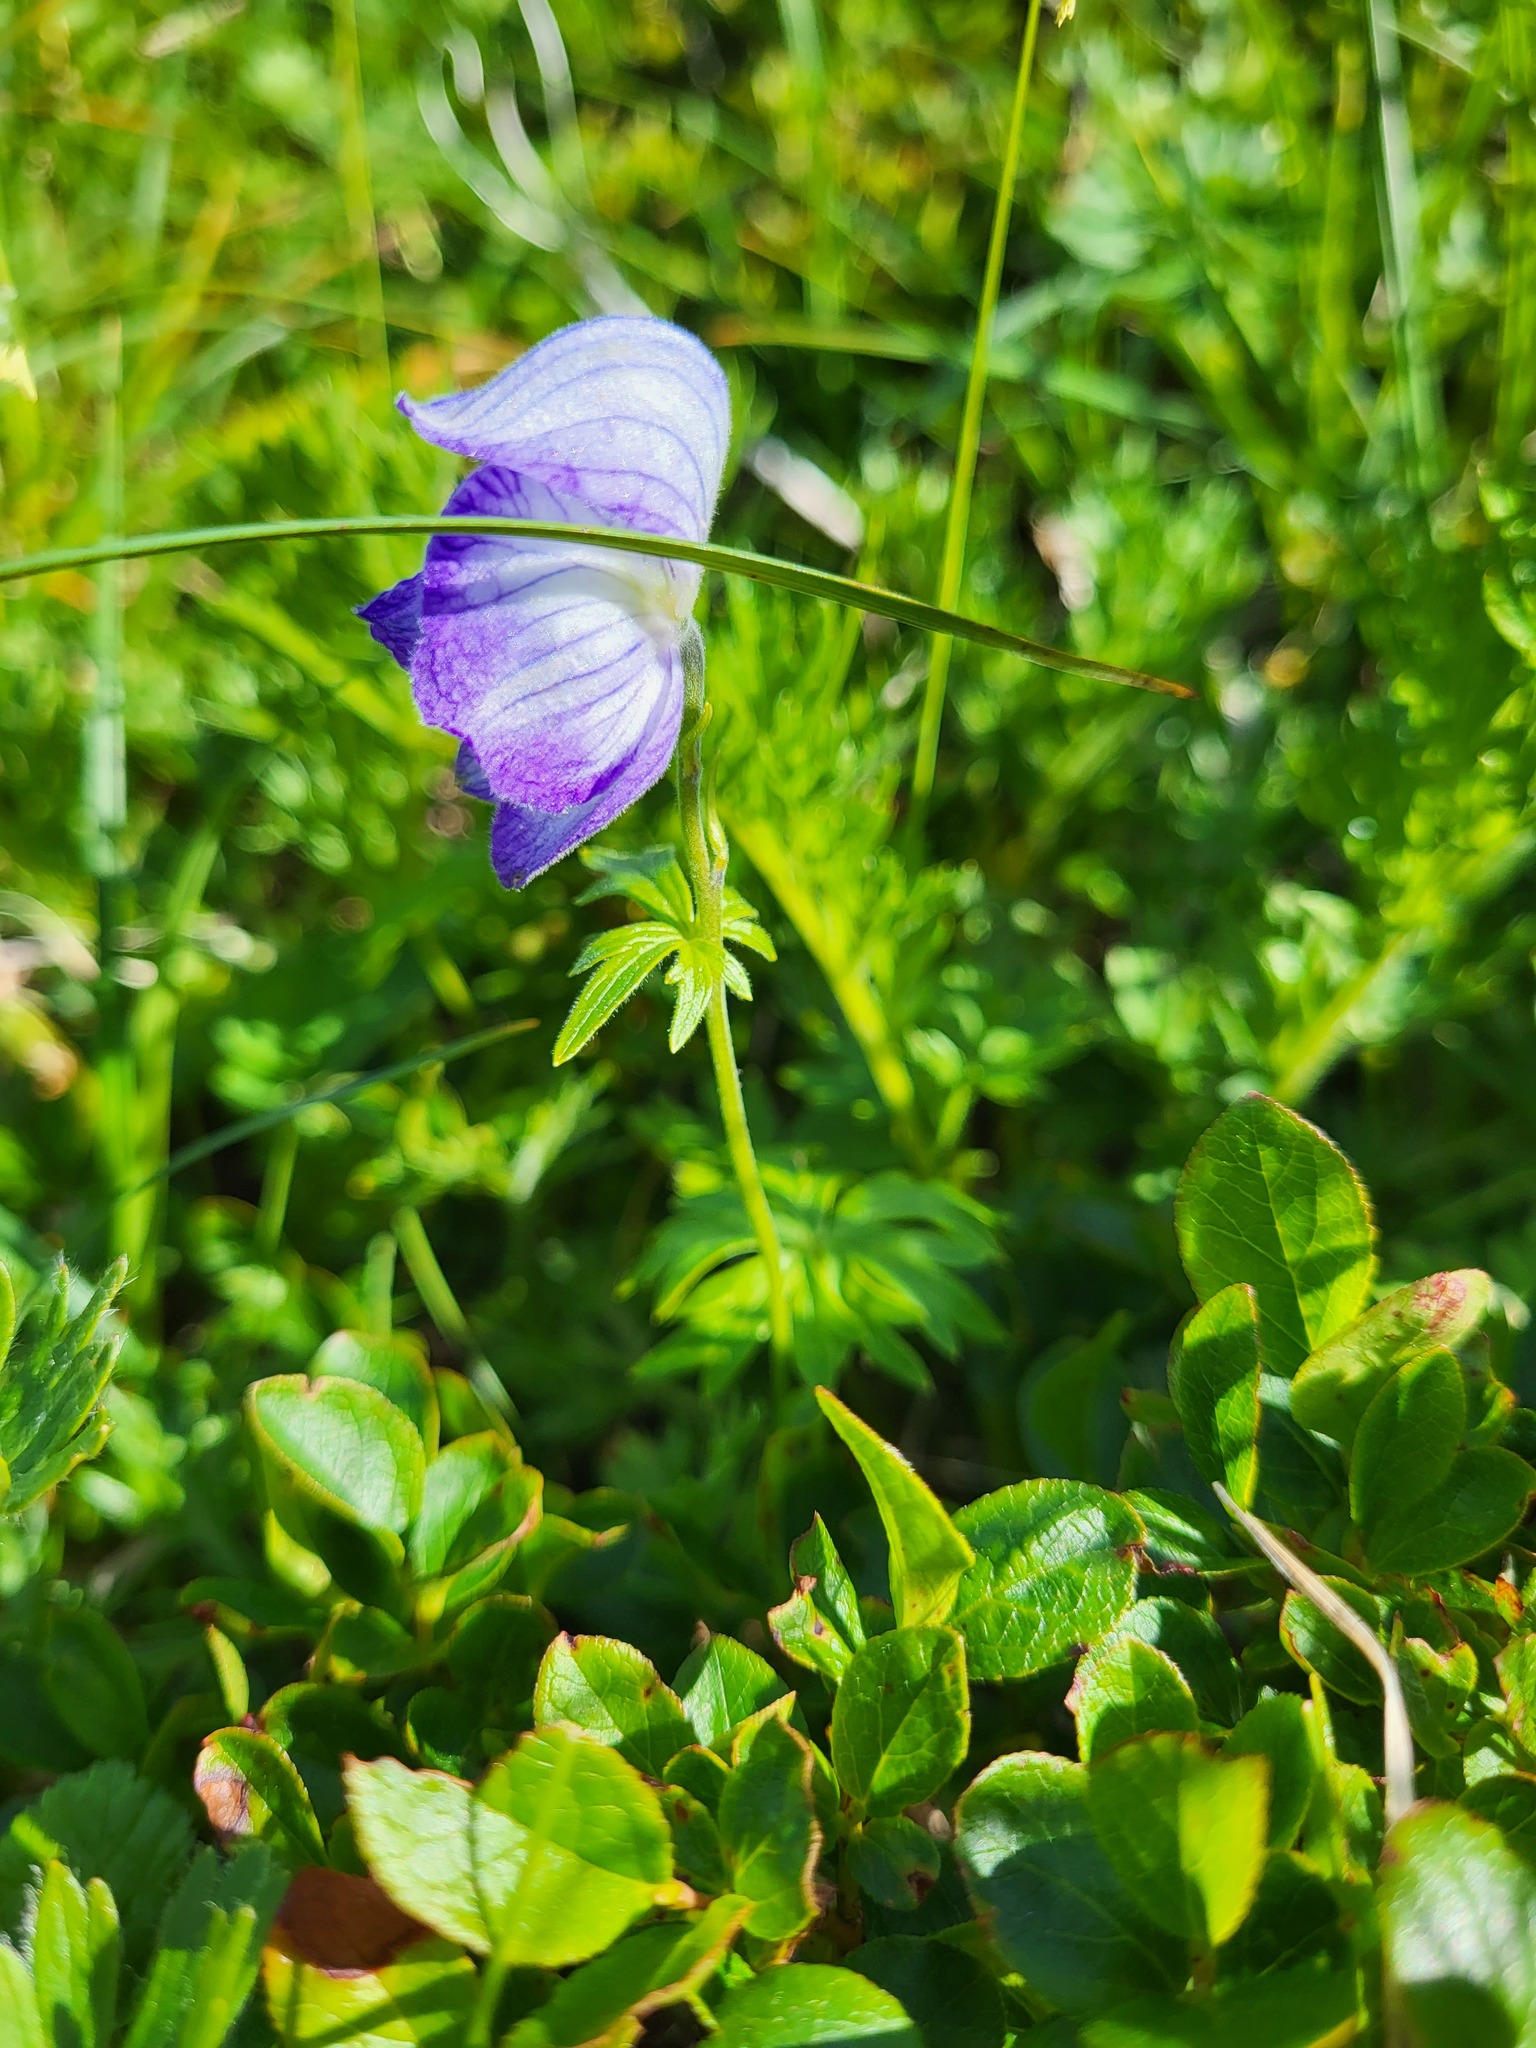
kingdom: Plantae
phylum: Tracheophyta
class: Magnoliopsida
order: Ranunculales
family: Ranunculaceae
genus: Aconitum
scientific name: Aconitum delphiniifolium
